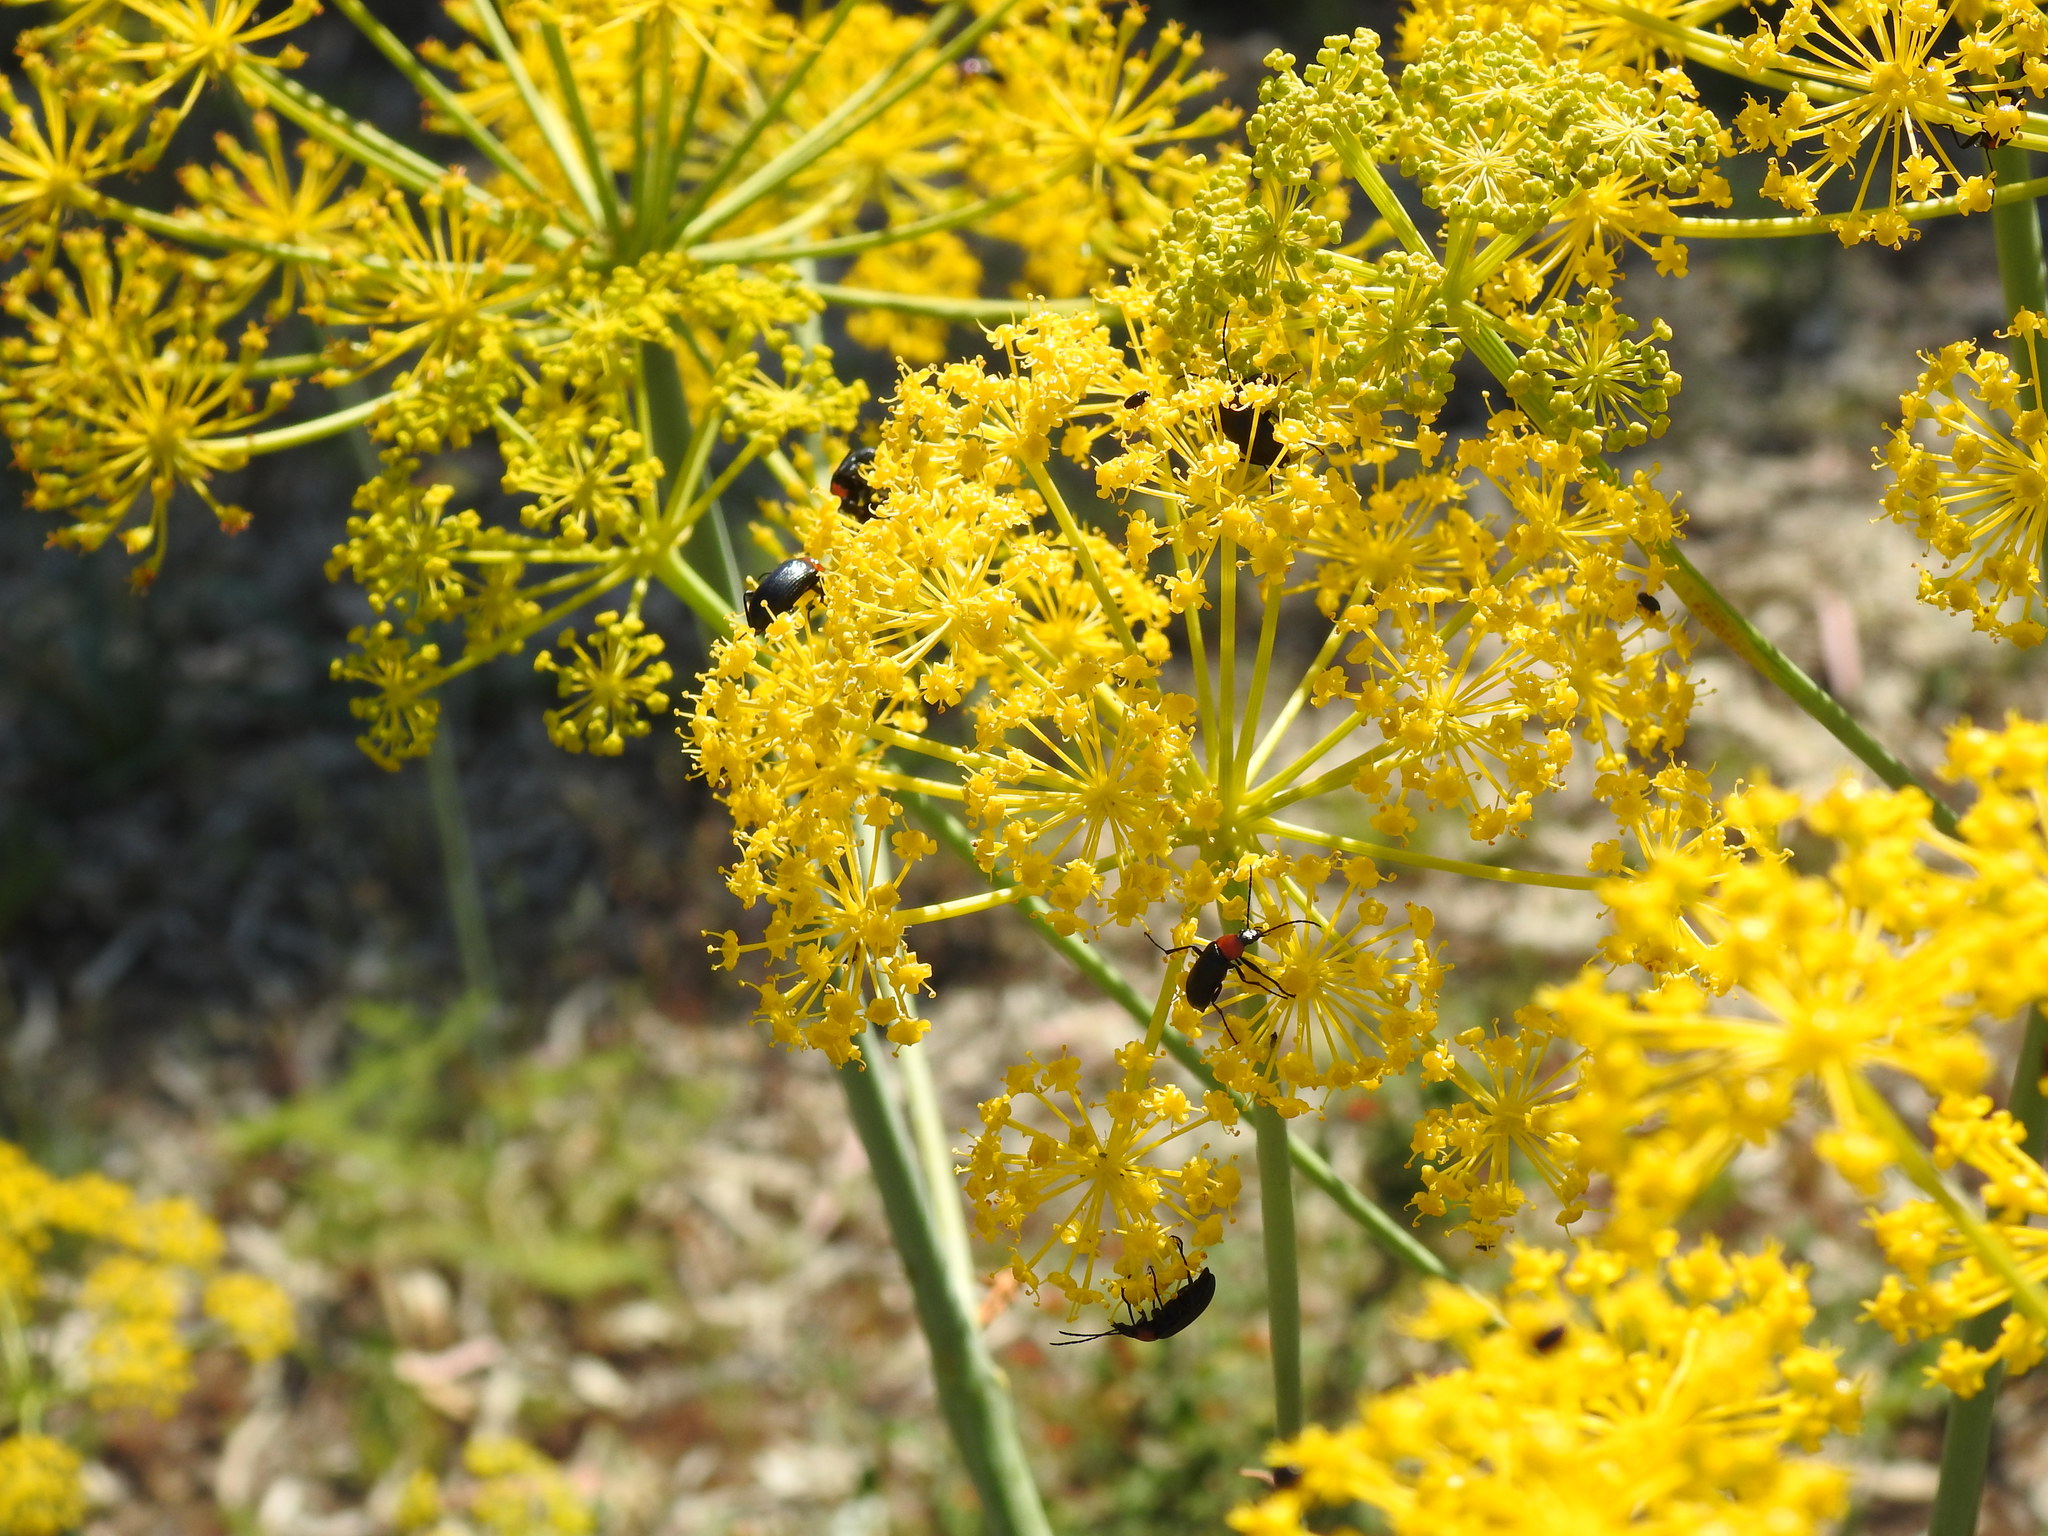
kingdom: Animalia
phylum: Arthropoda
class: Insecta
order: Coleoptera
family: Tenebrionidae
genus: Heliotaurus
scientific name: Heliotaurus ruficollis
